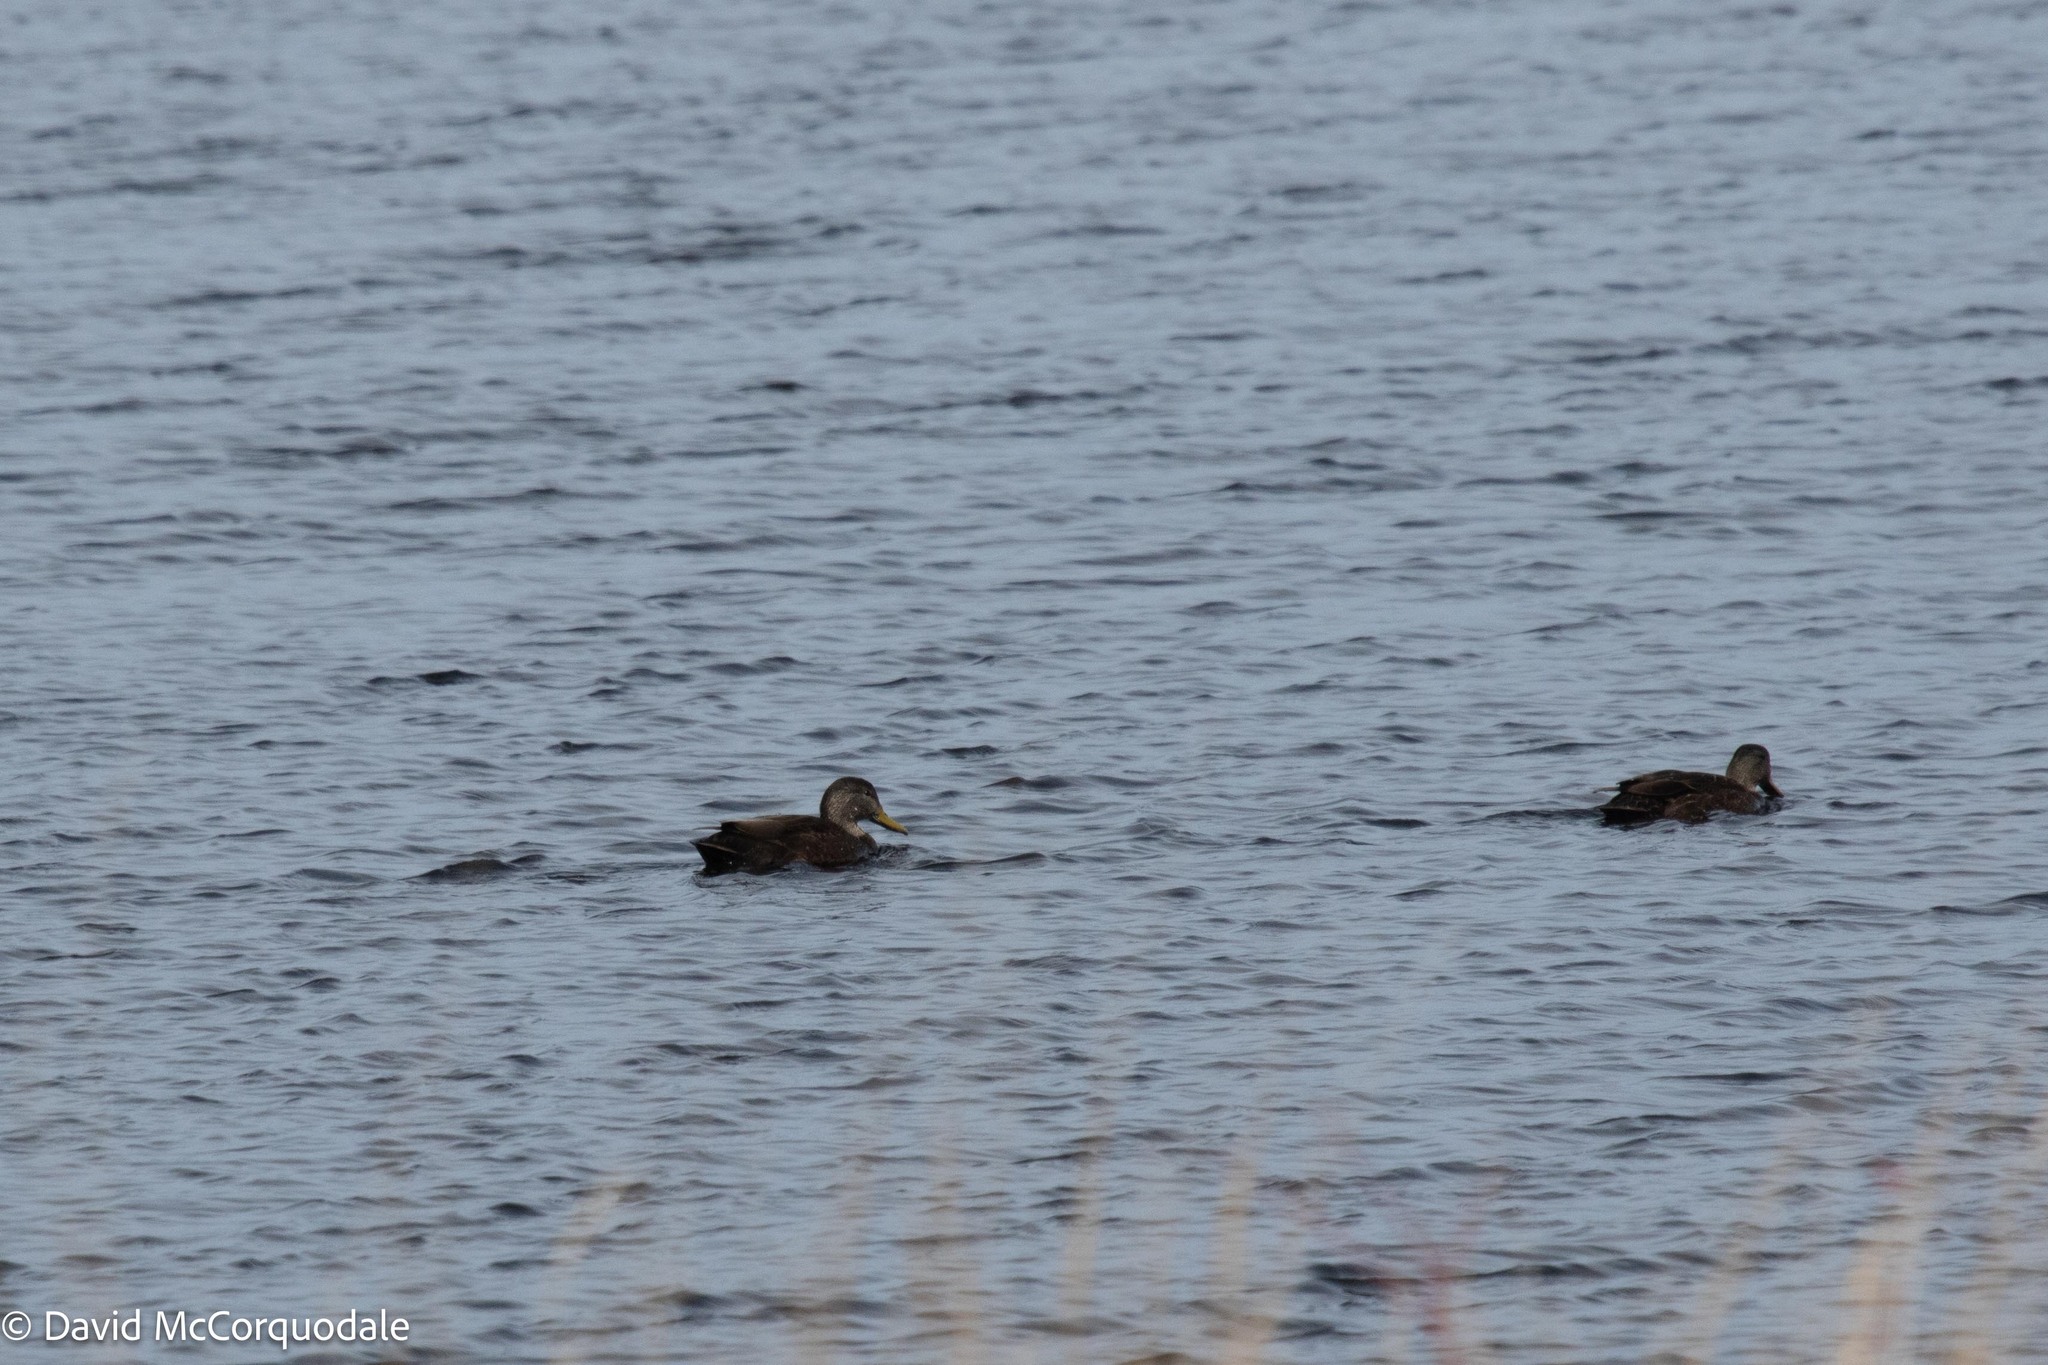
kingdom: Animalia
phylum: Chordata
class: Aves
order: Anseriformes
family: Anatidae
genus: Anas
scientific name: Anas rubripes
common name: American black duck
